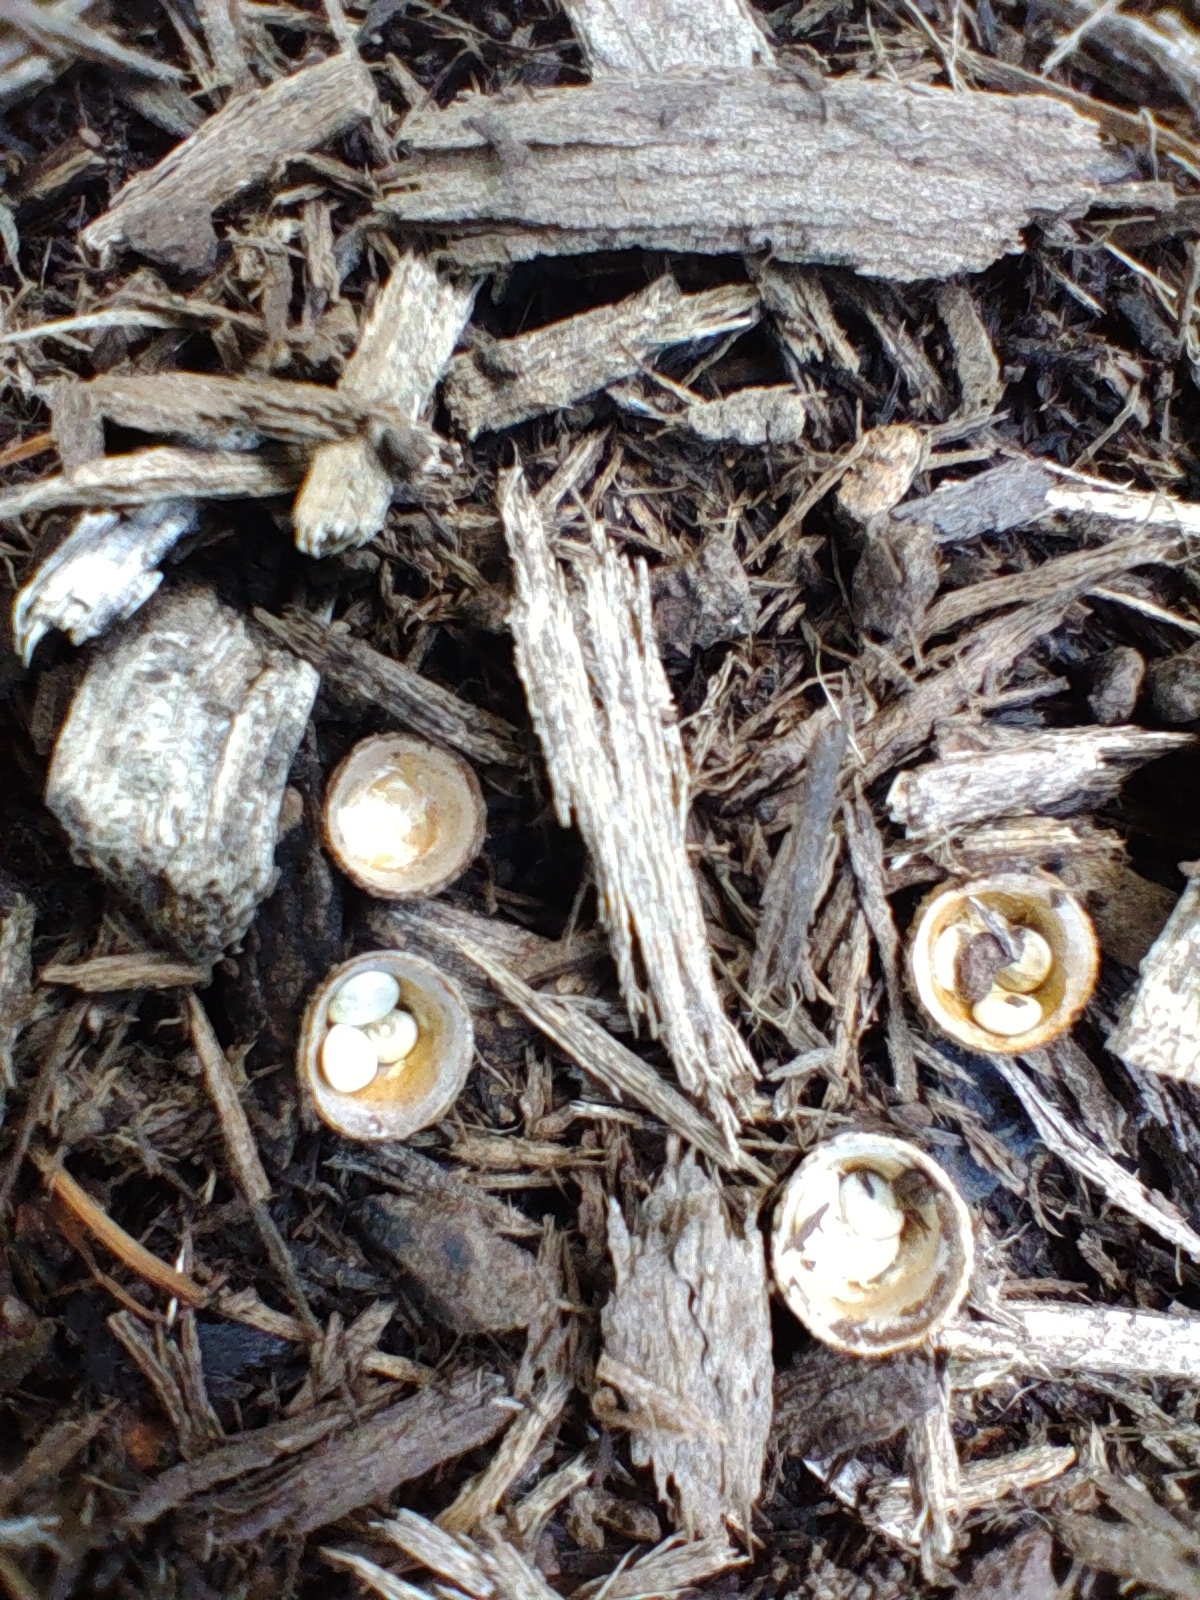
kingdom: Fungi
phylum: Basidiomycota
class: Agaricomycetes
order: Agaricales
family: Nidulariaceae
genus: Crucibulum
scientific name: Crucibulum laeve
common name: Common bird's nest
